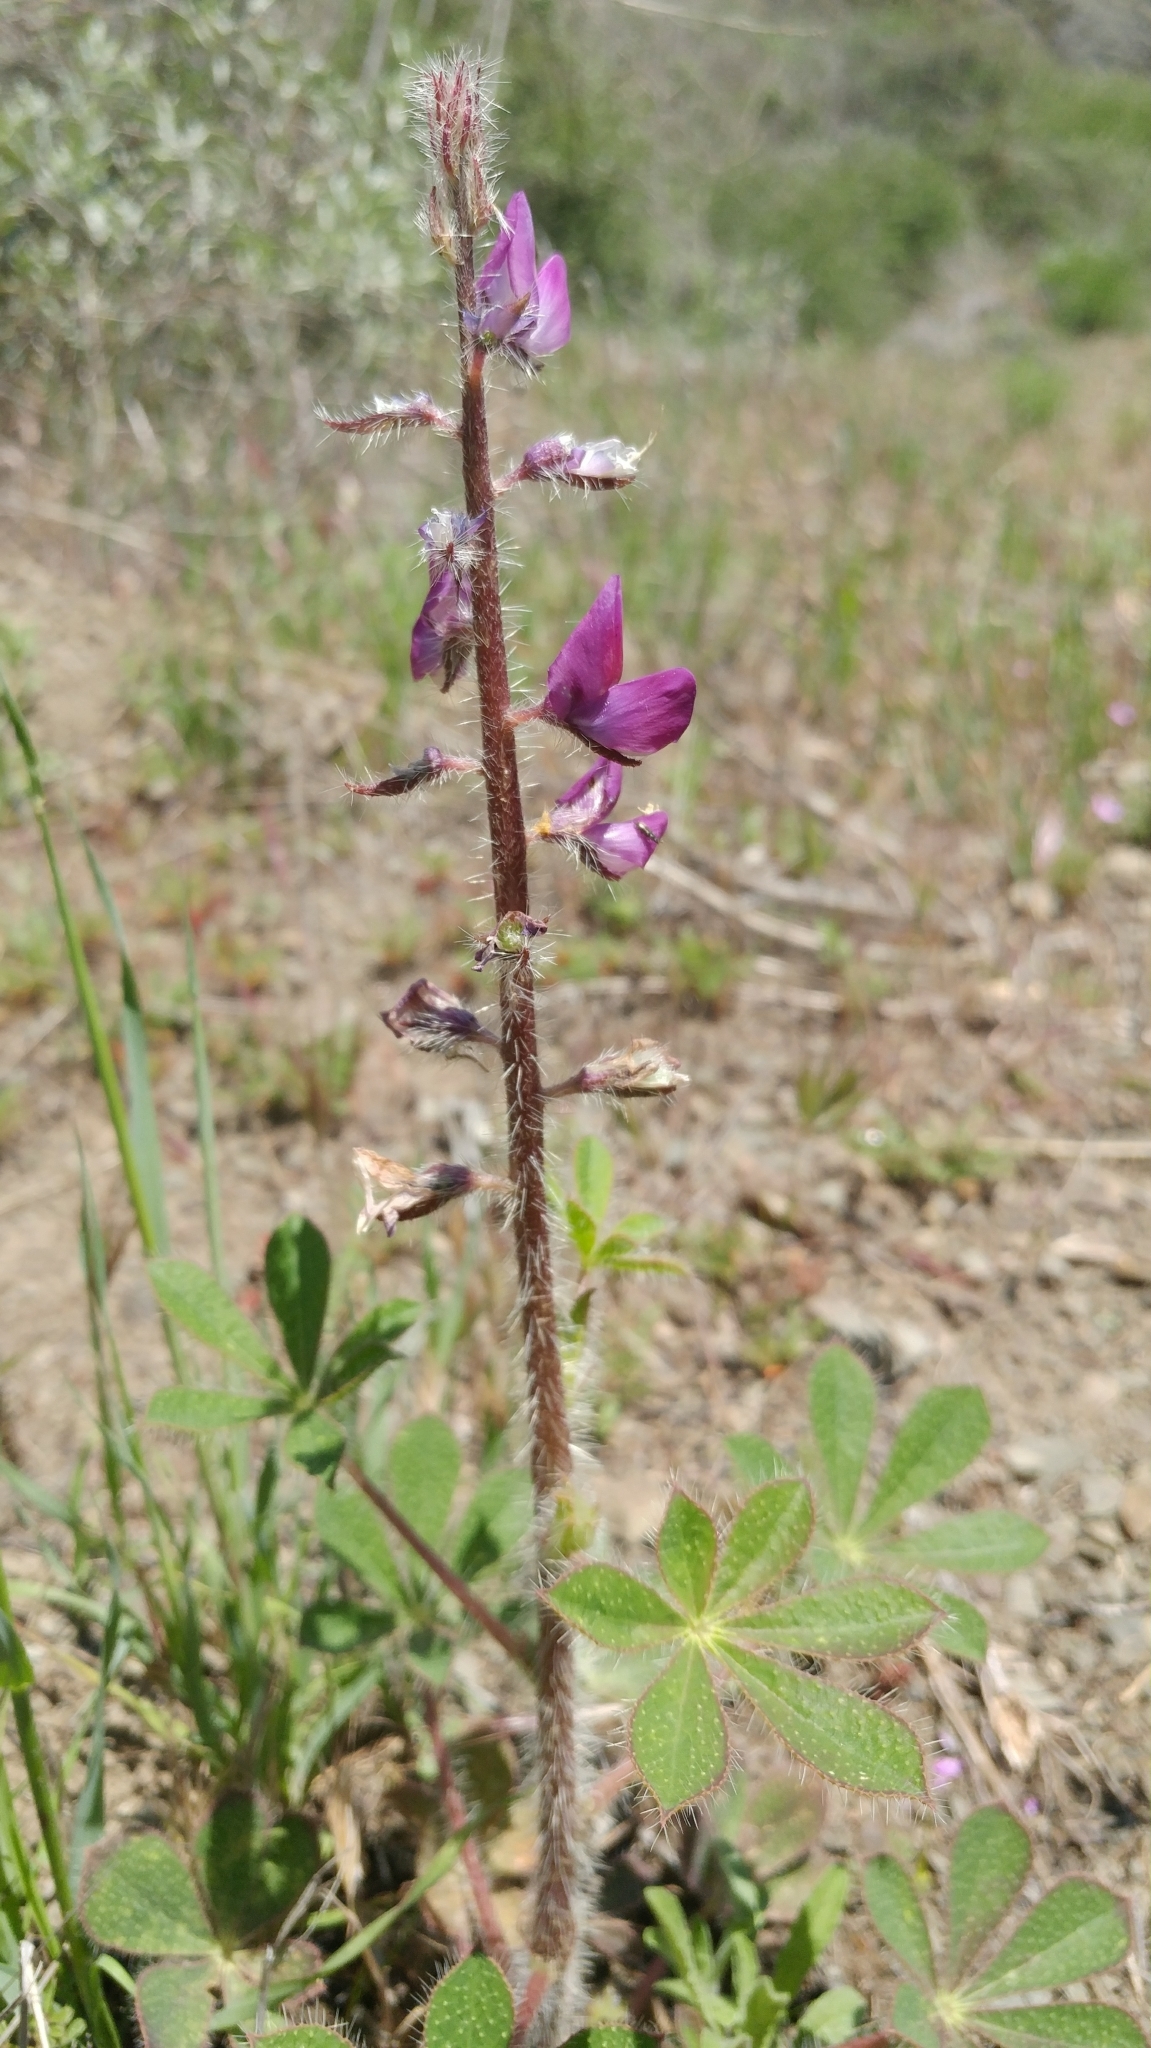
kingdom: Plantae
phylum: Tracheophyta
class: Magnoliopsida
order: Fabales
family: Fabaceae
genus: Lupinus
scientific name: Lupinus hirsutissimus
